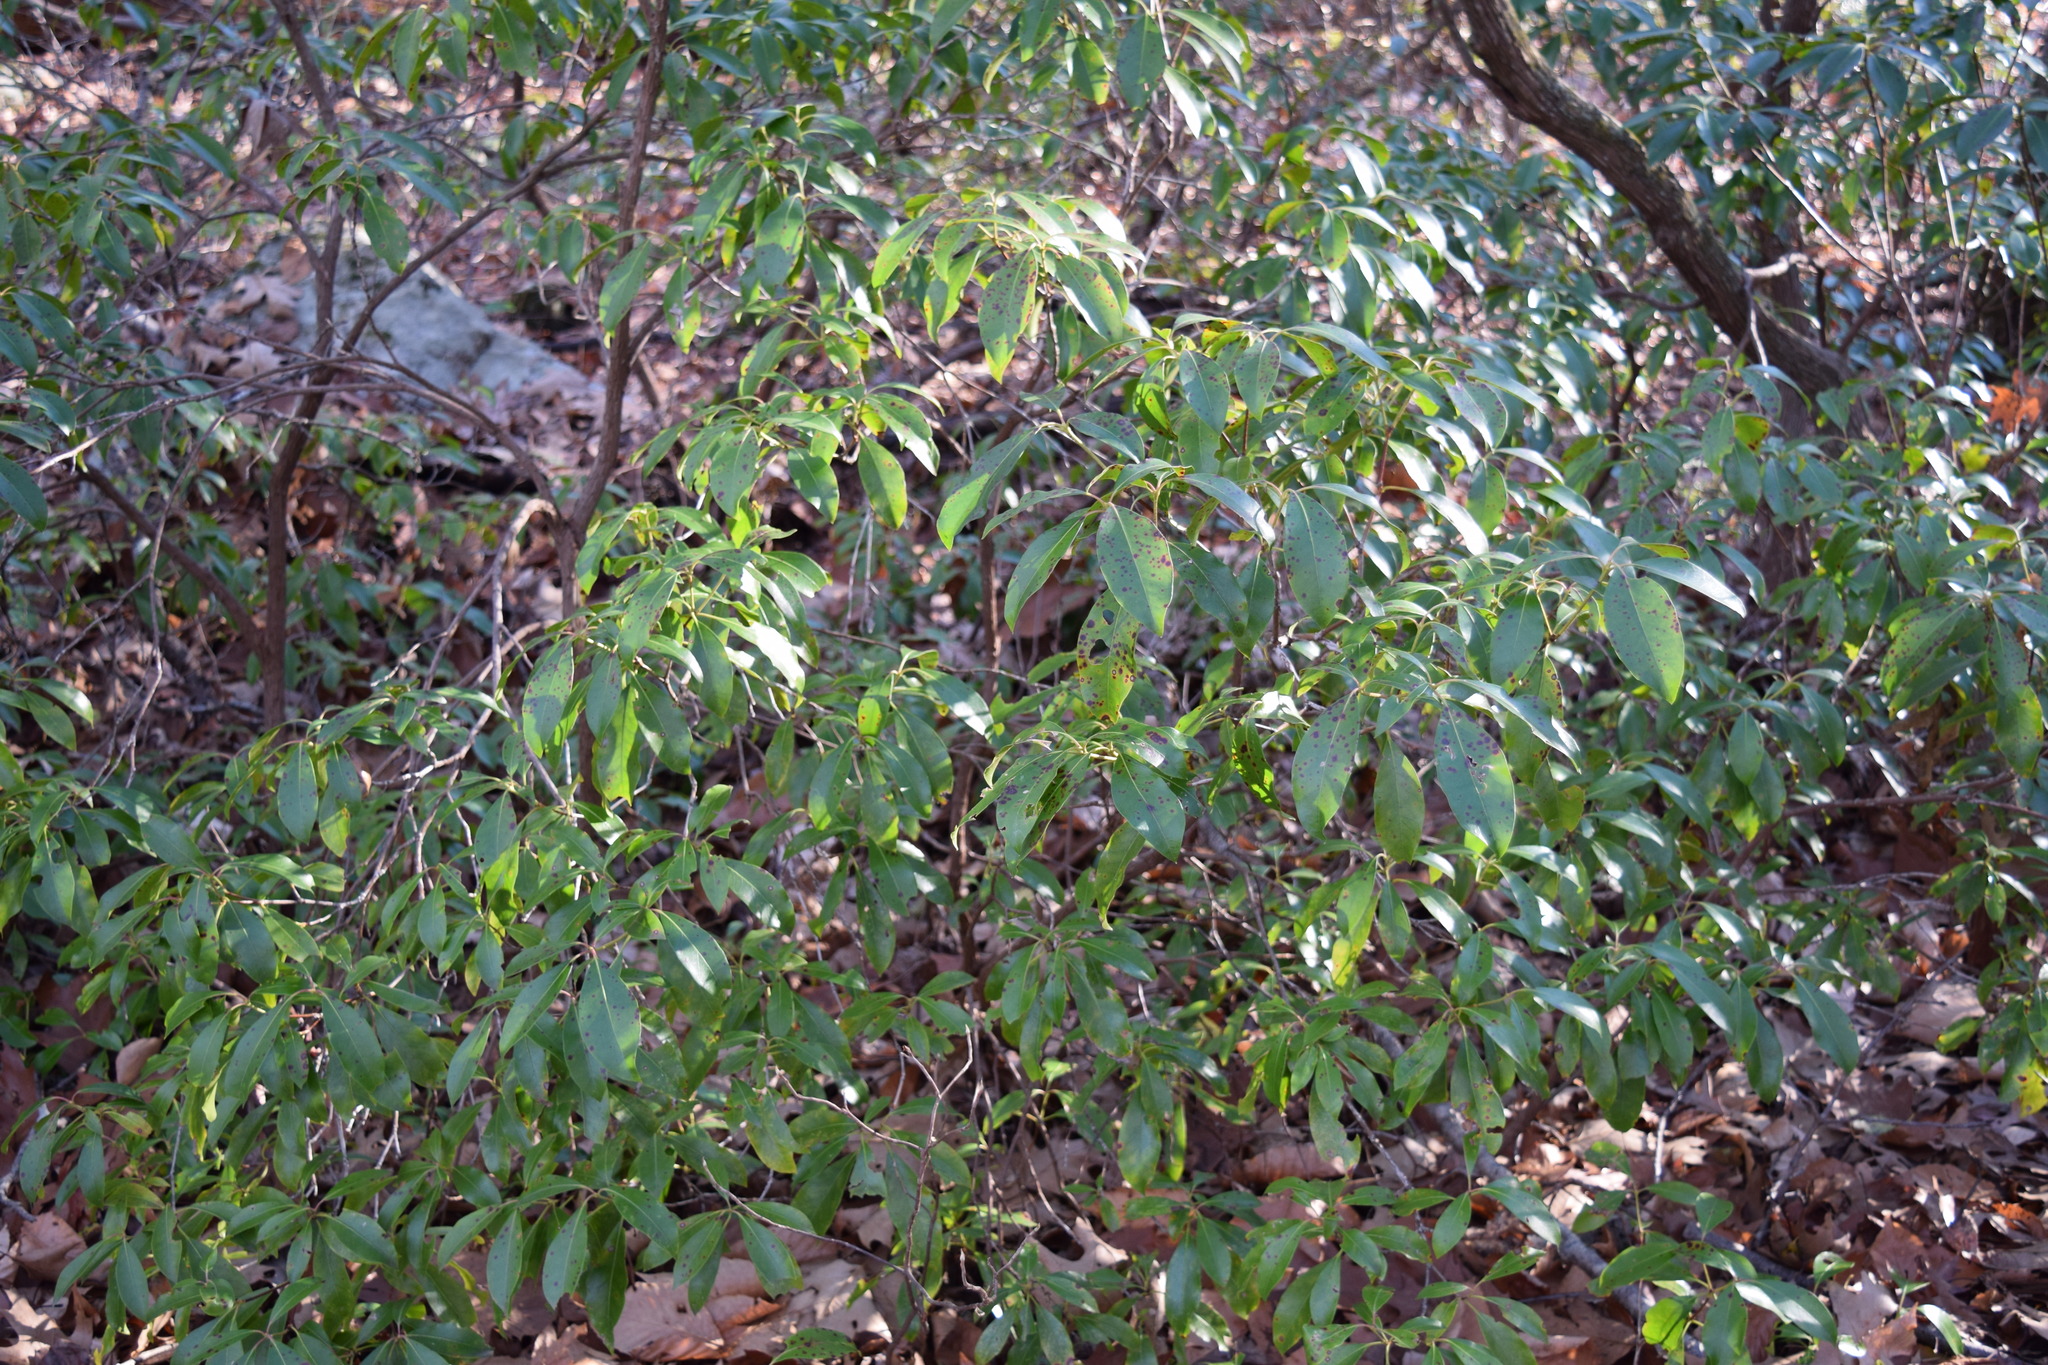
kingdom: Plantae
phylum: Tracheophyta
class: Magnoliopsida
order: Ericales
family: Ericaceae
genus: Kalmia
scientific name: Kalmia latifolia
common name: Mountain-laurel
